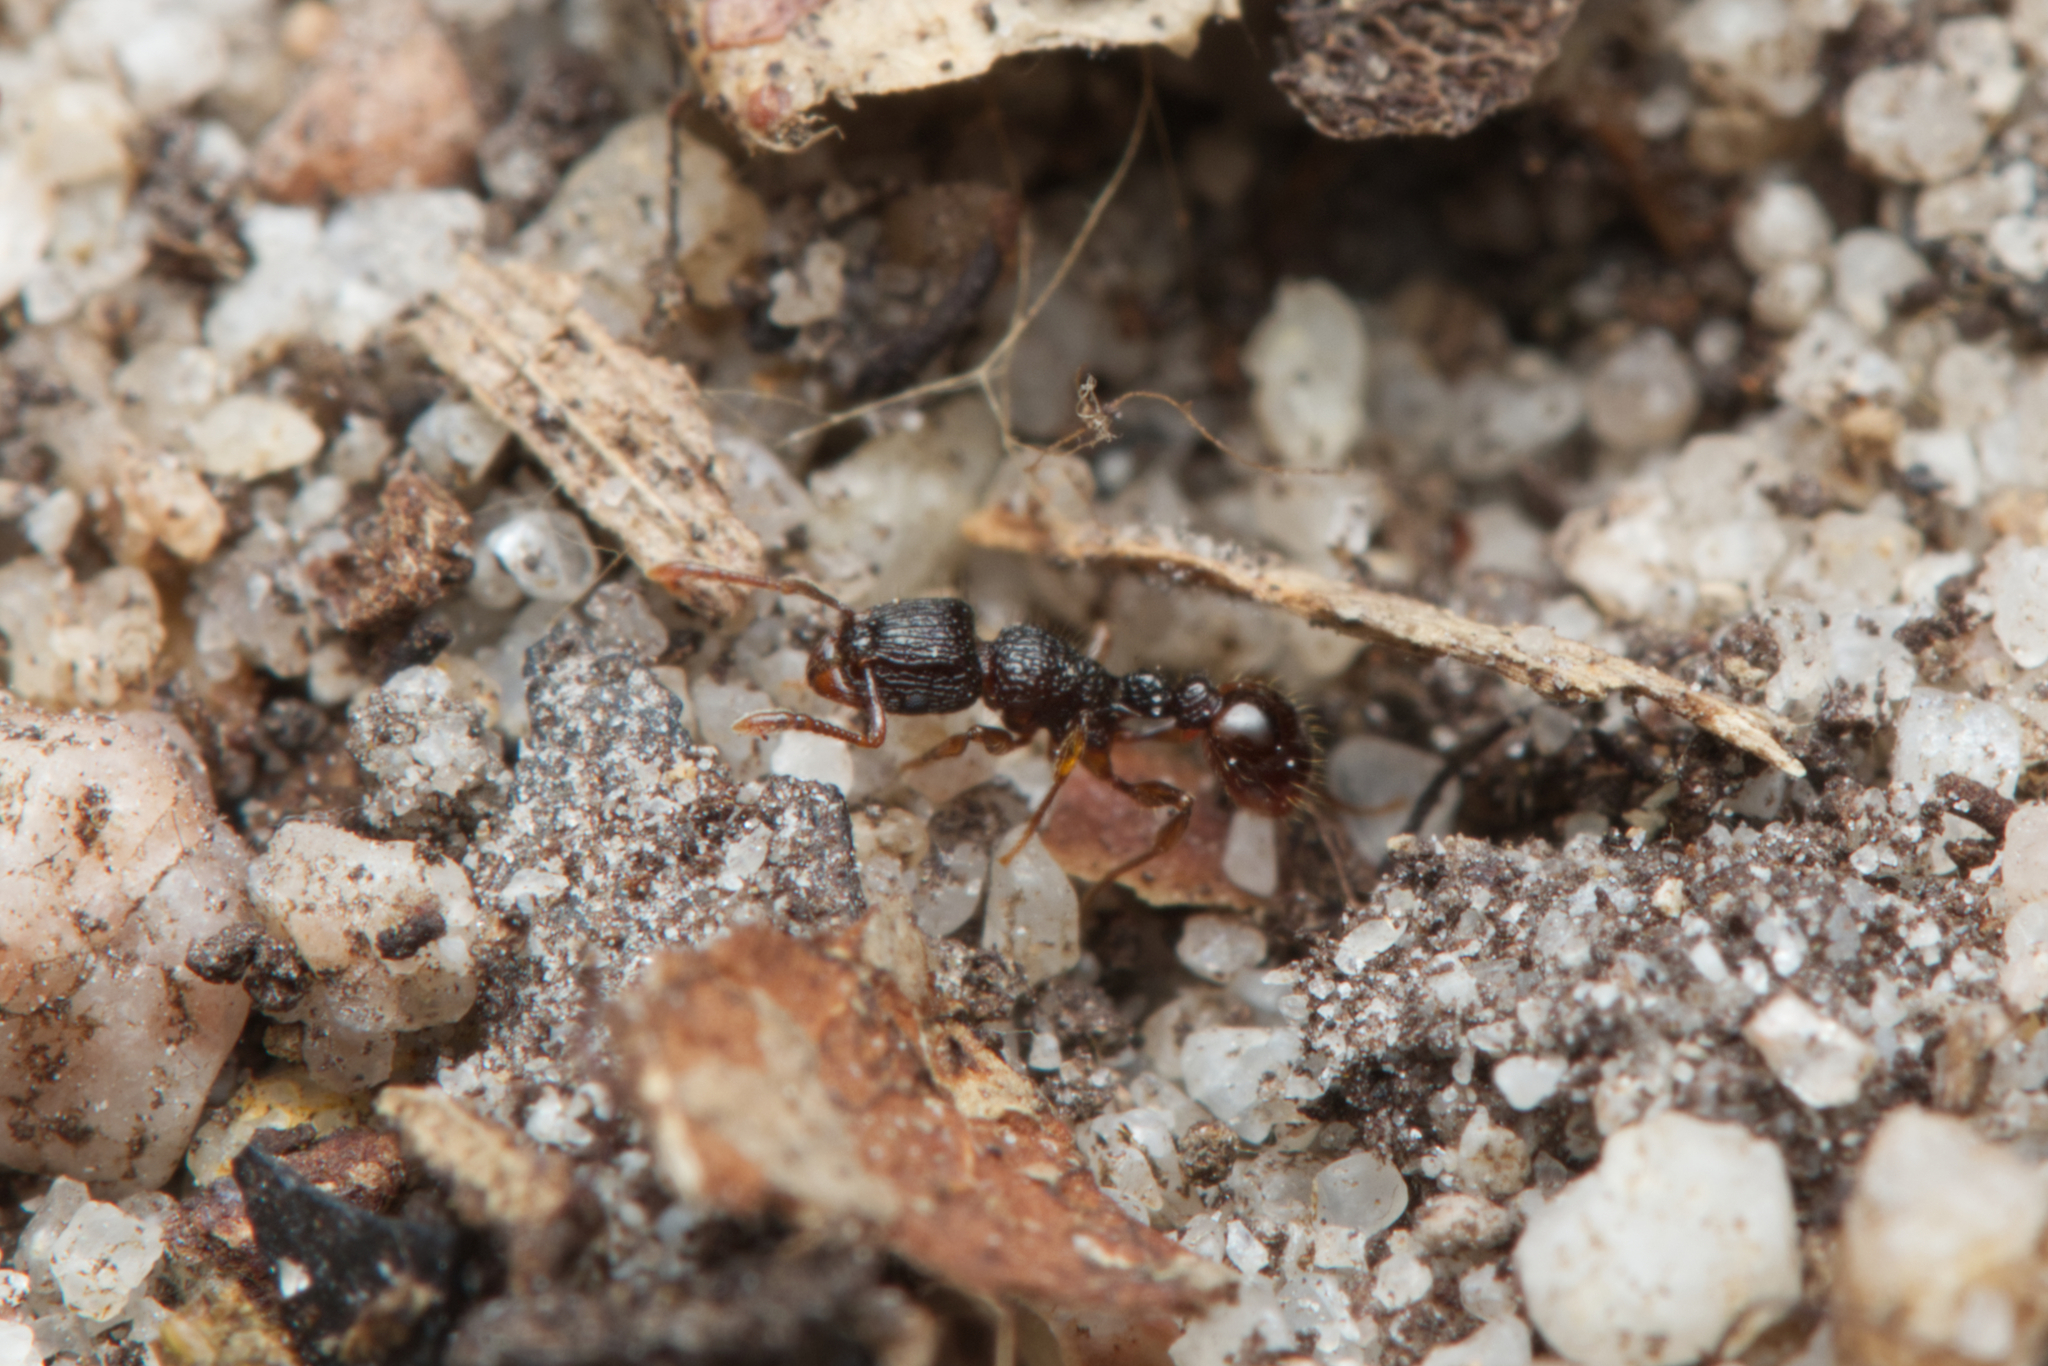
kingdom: Animalia
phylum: Arthropoda
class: Insecta
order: Hymenoptera
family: Formicidae
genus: Tetramorium
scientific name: Tetramorium confusum
